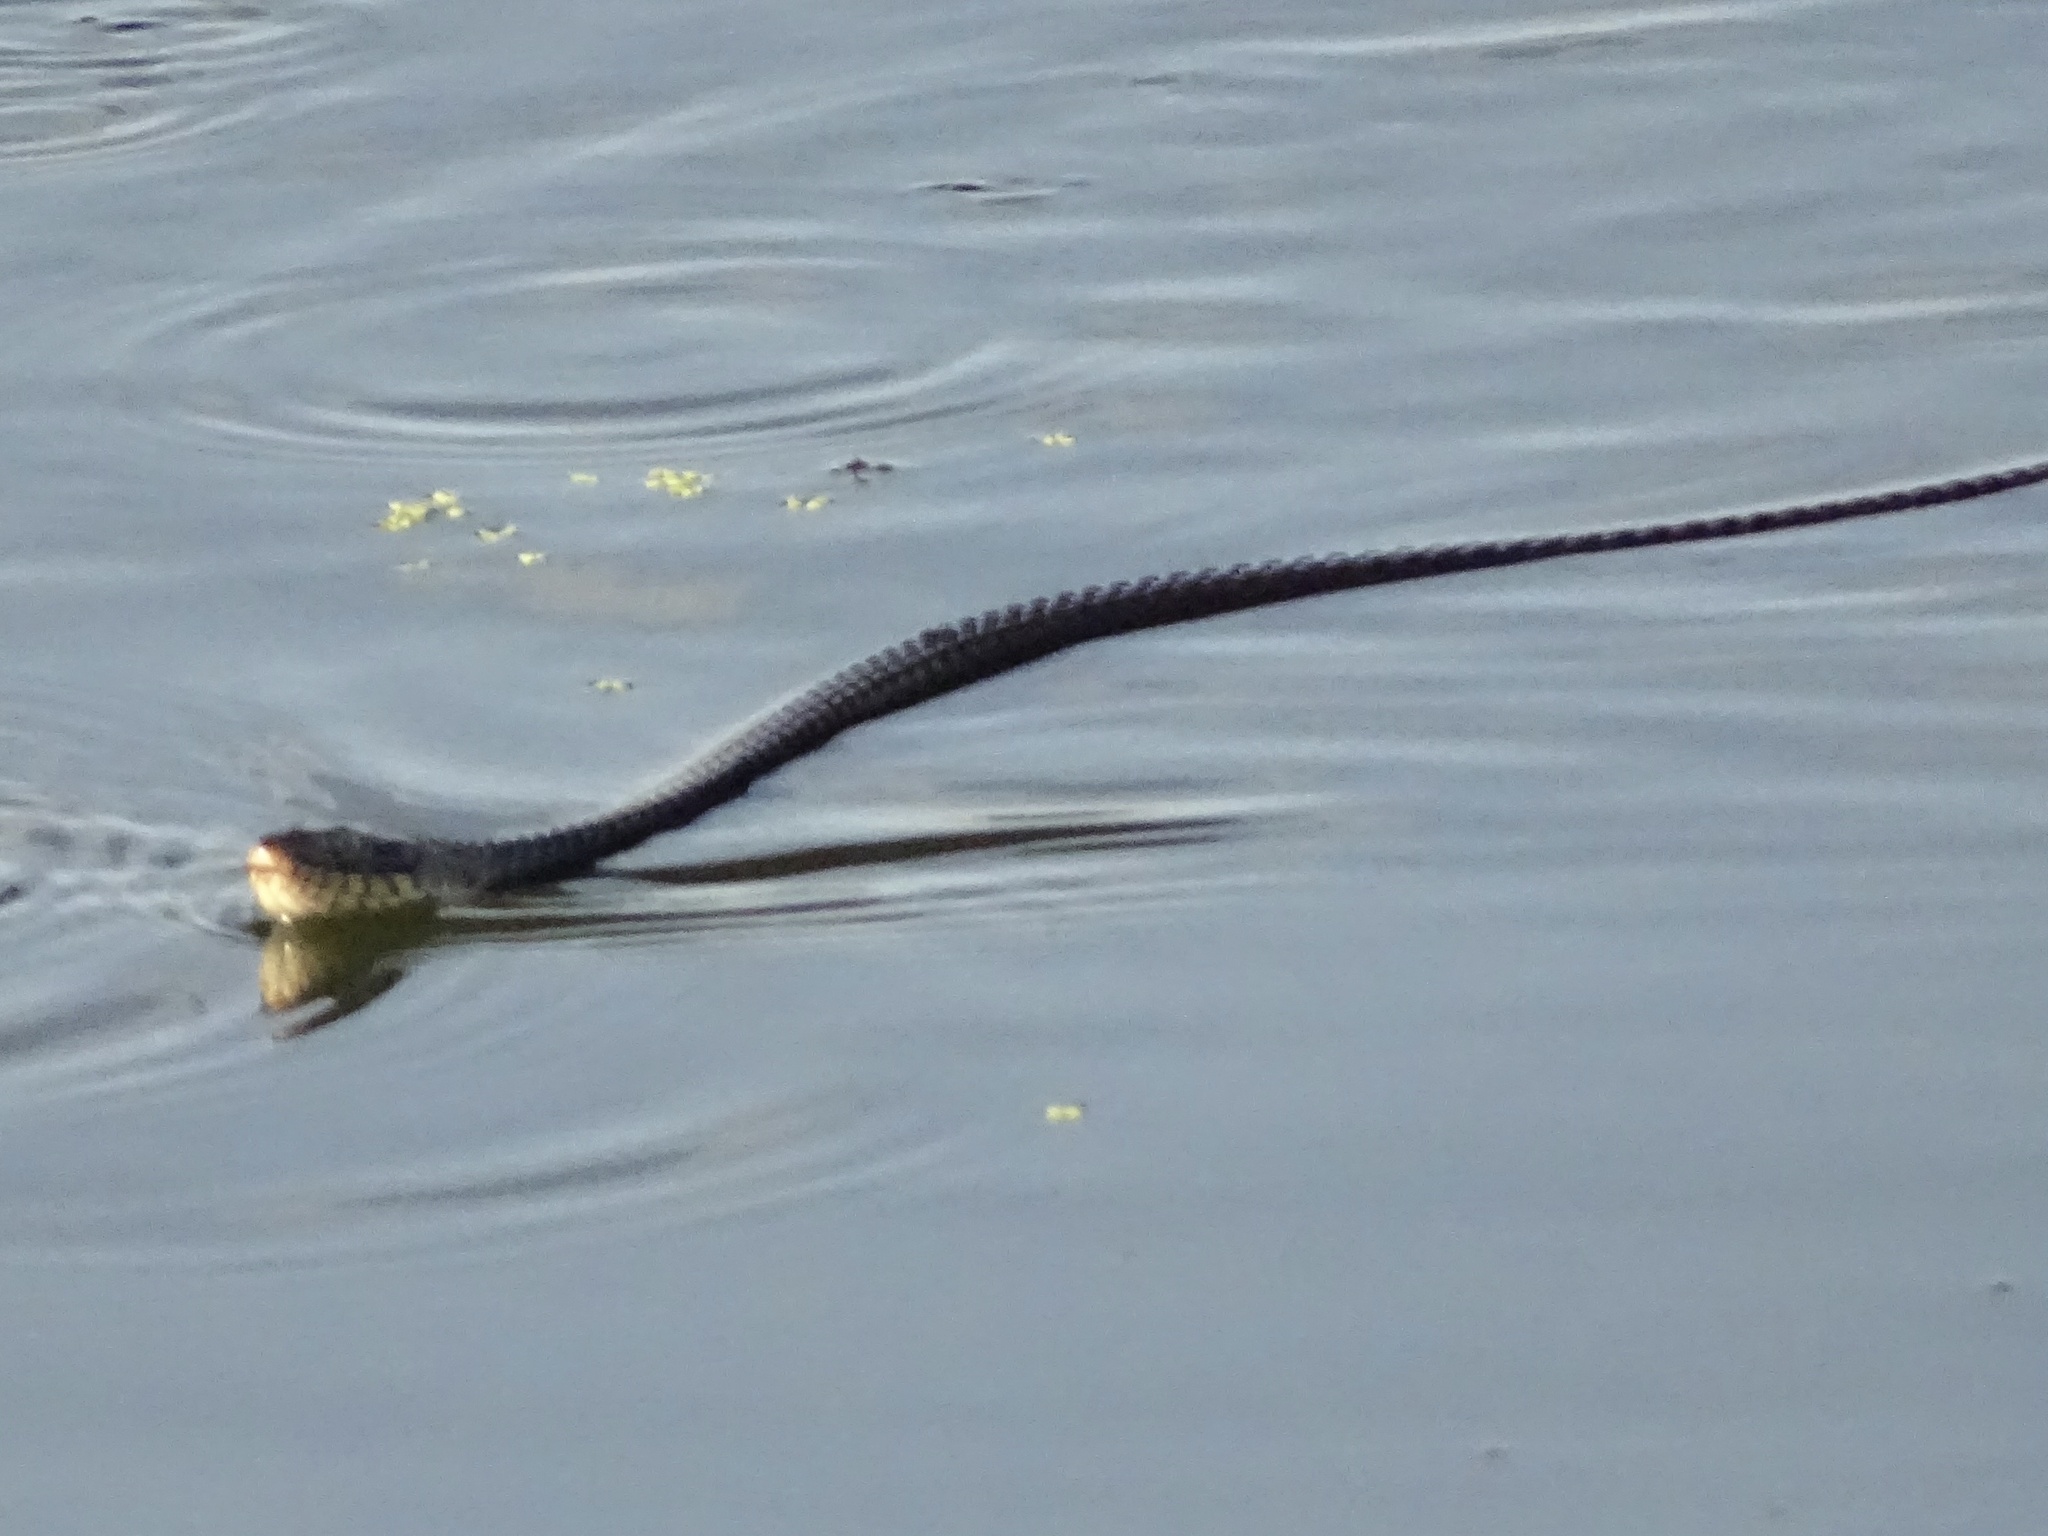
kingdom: Animalia
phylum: Chordata
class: Squamata
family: Colubridae
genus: Nerodia
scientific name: Nerodia erythrogaster
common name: Plainbelly water snake
